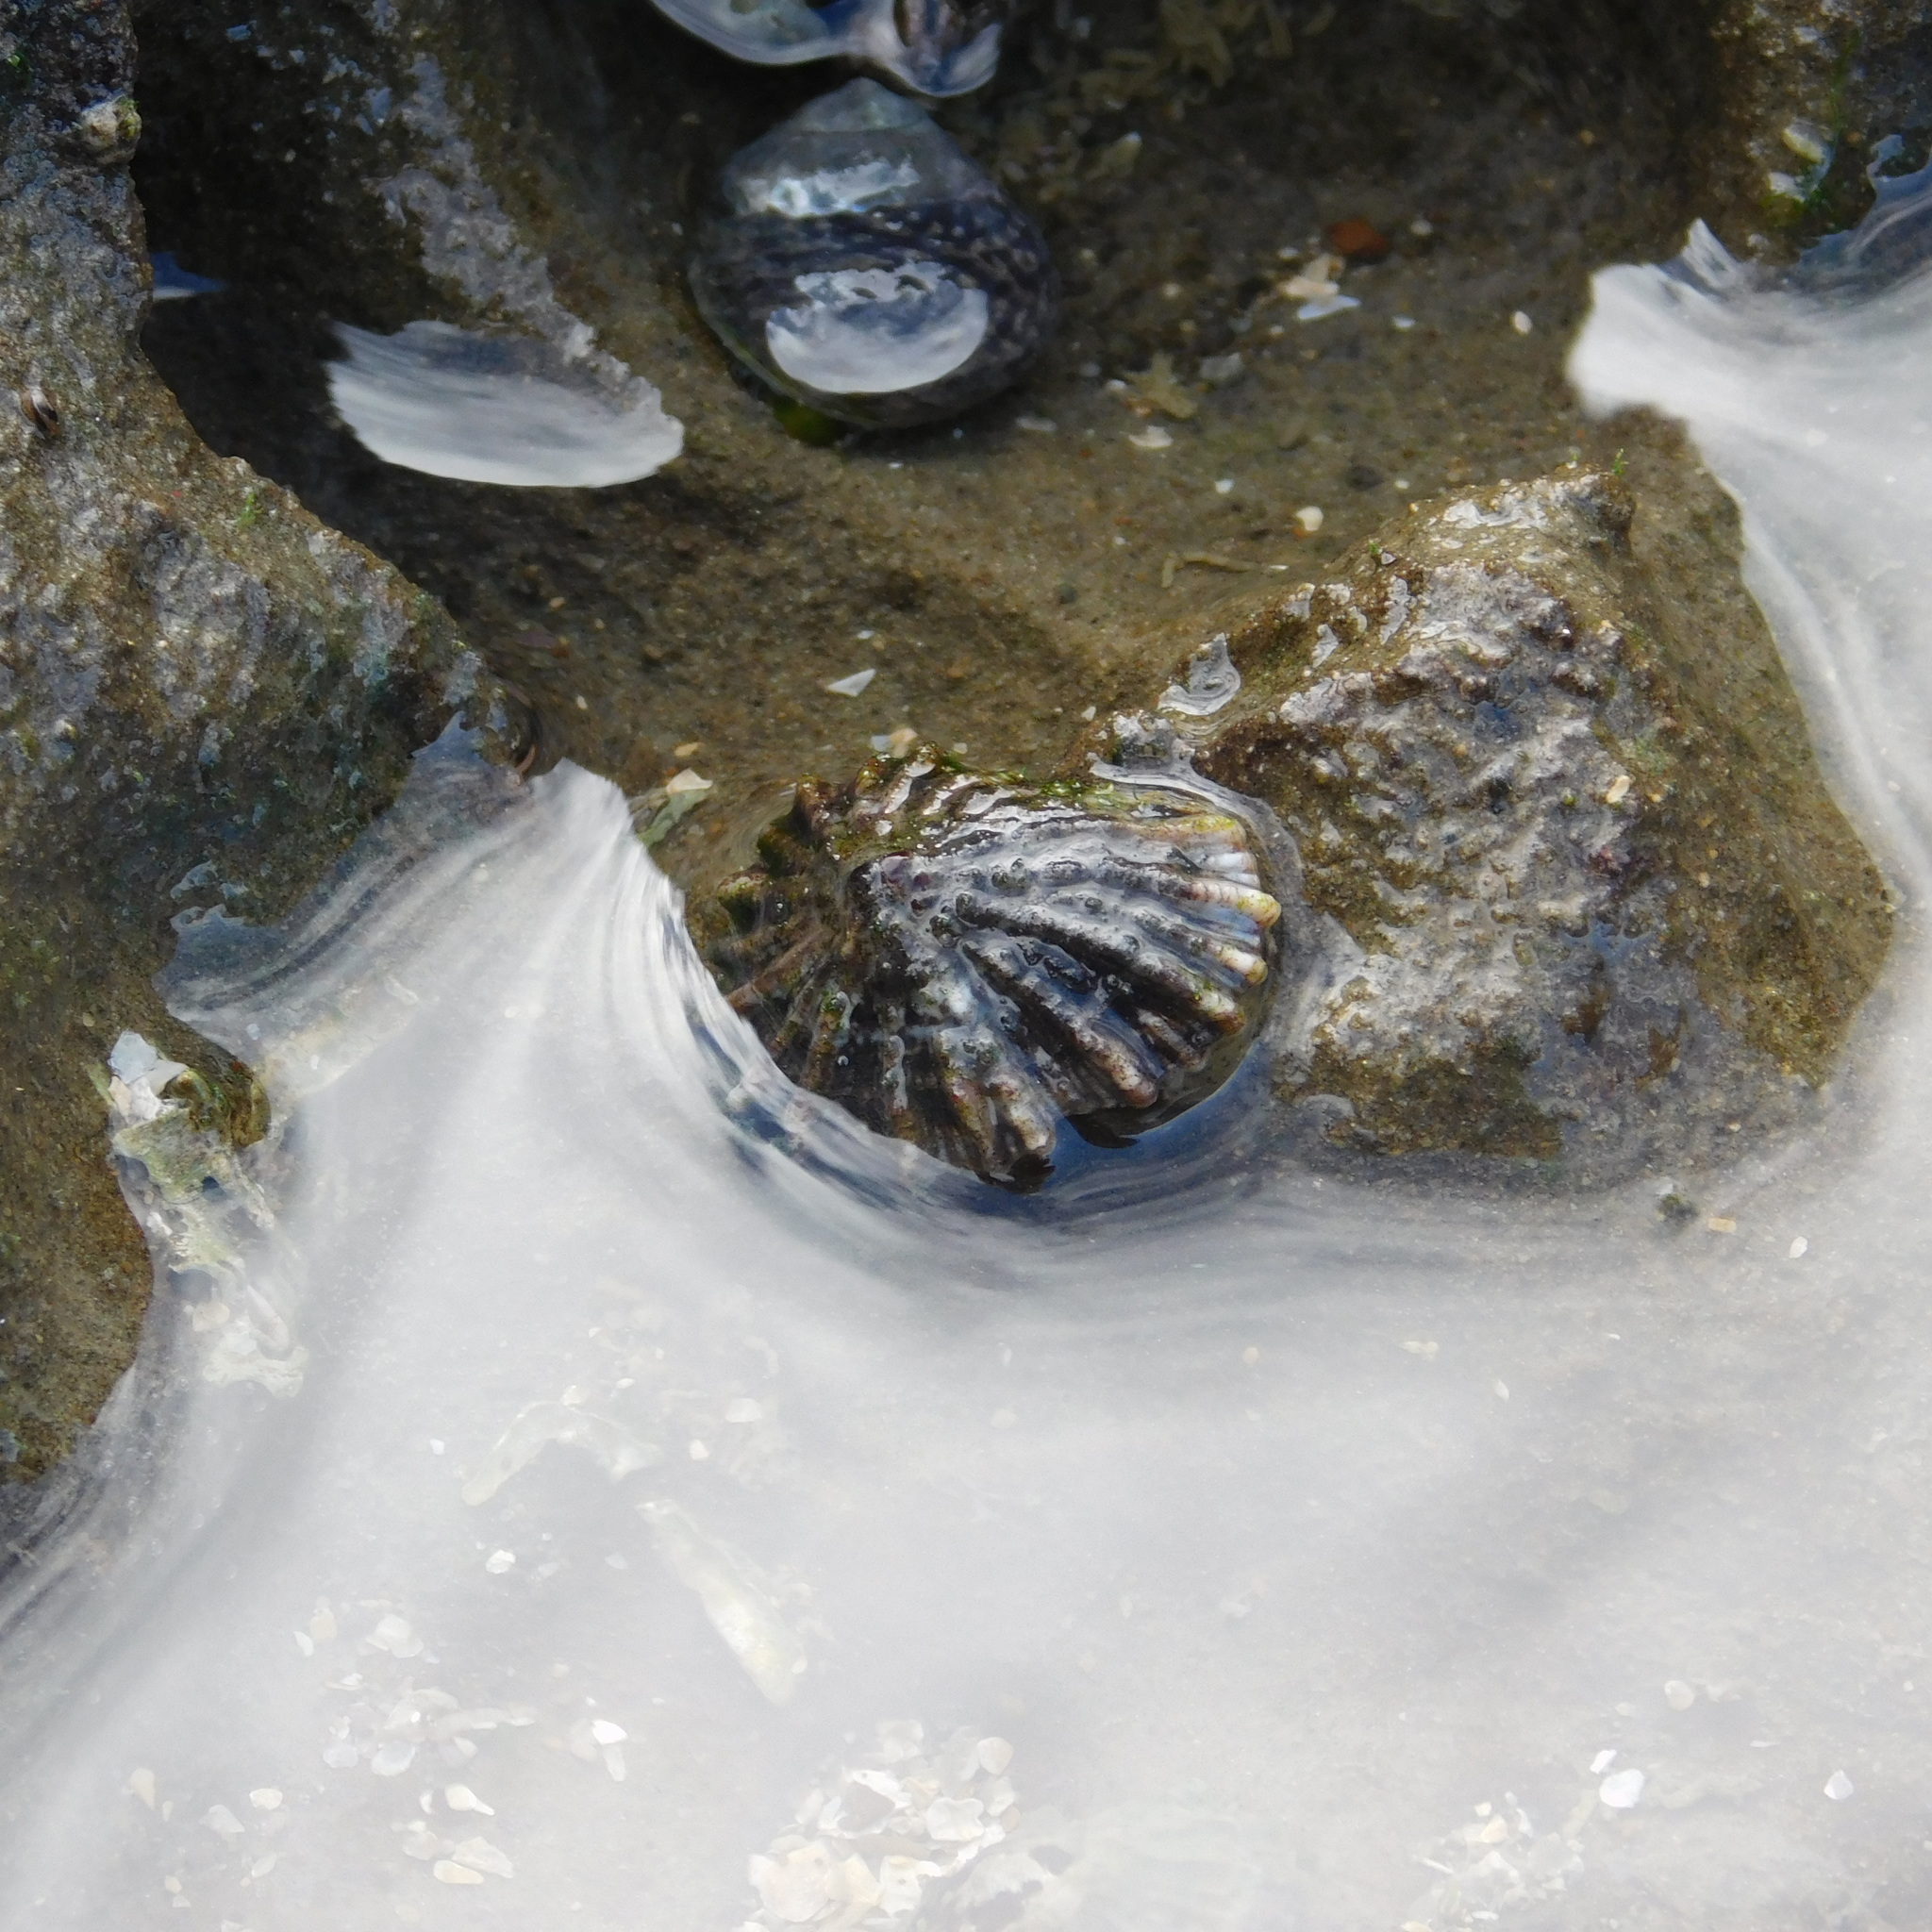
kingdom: Animalia
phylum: Mollusca
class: Gastropoda
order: Siphonariida
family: Siphonariidae
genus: Siphonaria
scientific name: Siphonaria australis
